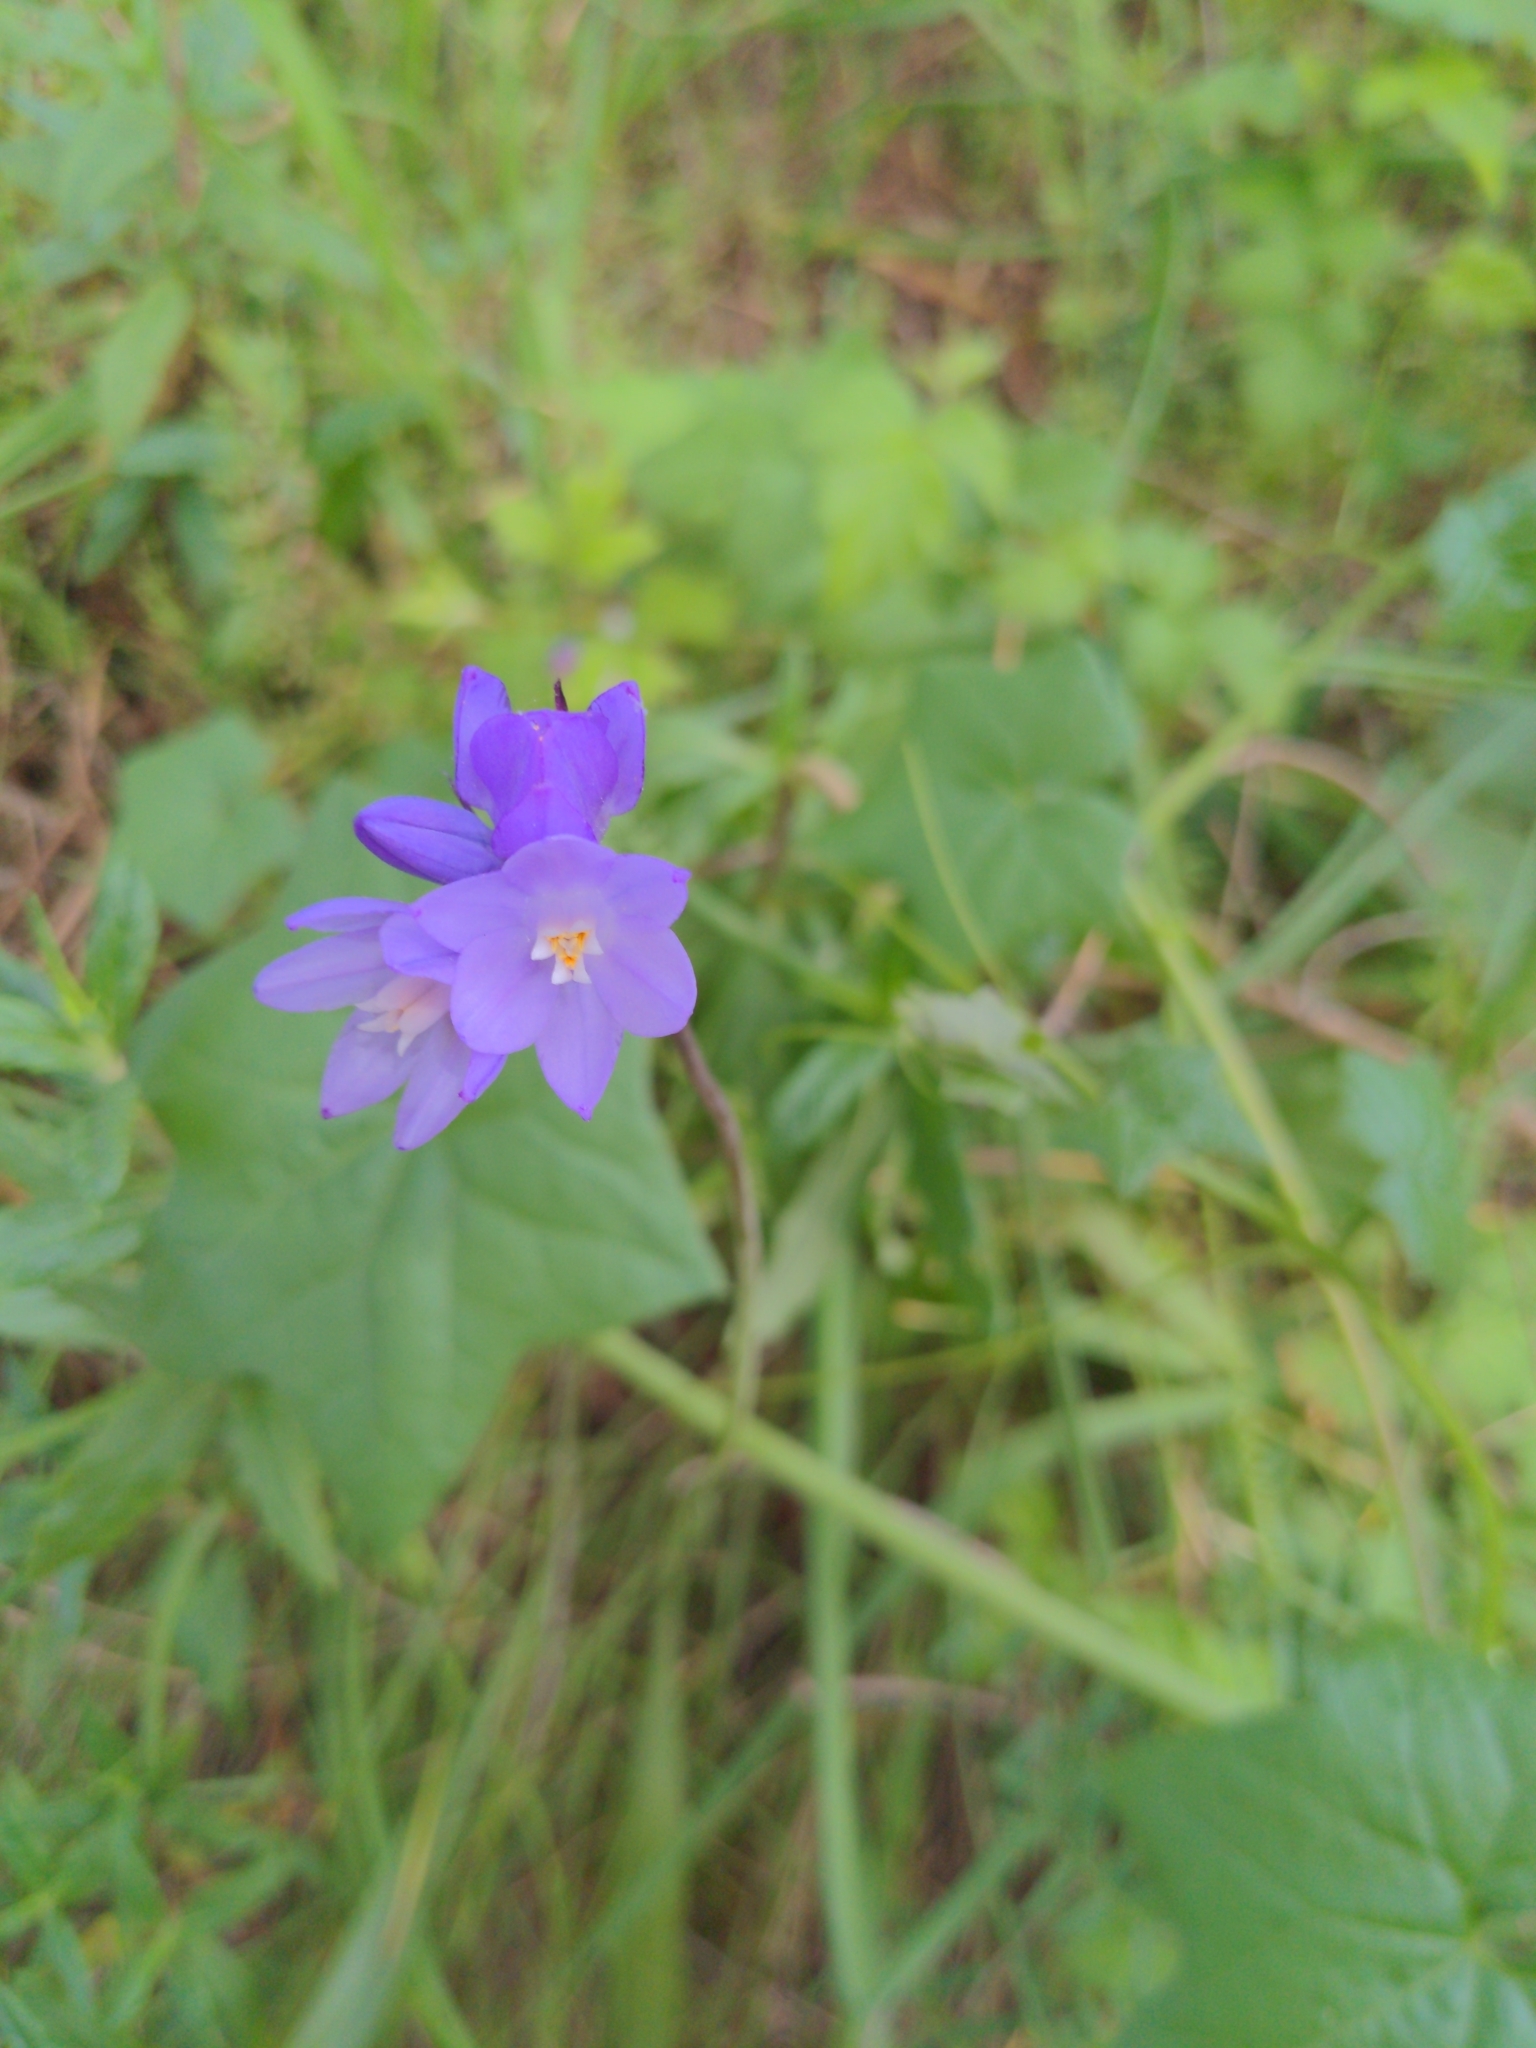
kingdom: Plantae
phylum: Tracheophyta
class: Liliopsida
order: Asparagales
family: Asparagaceae
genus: Dipterostemon
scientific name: Dipterostemon capitatus
